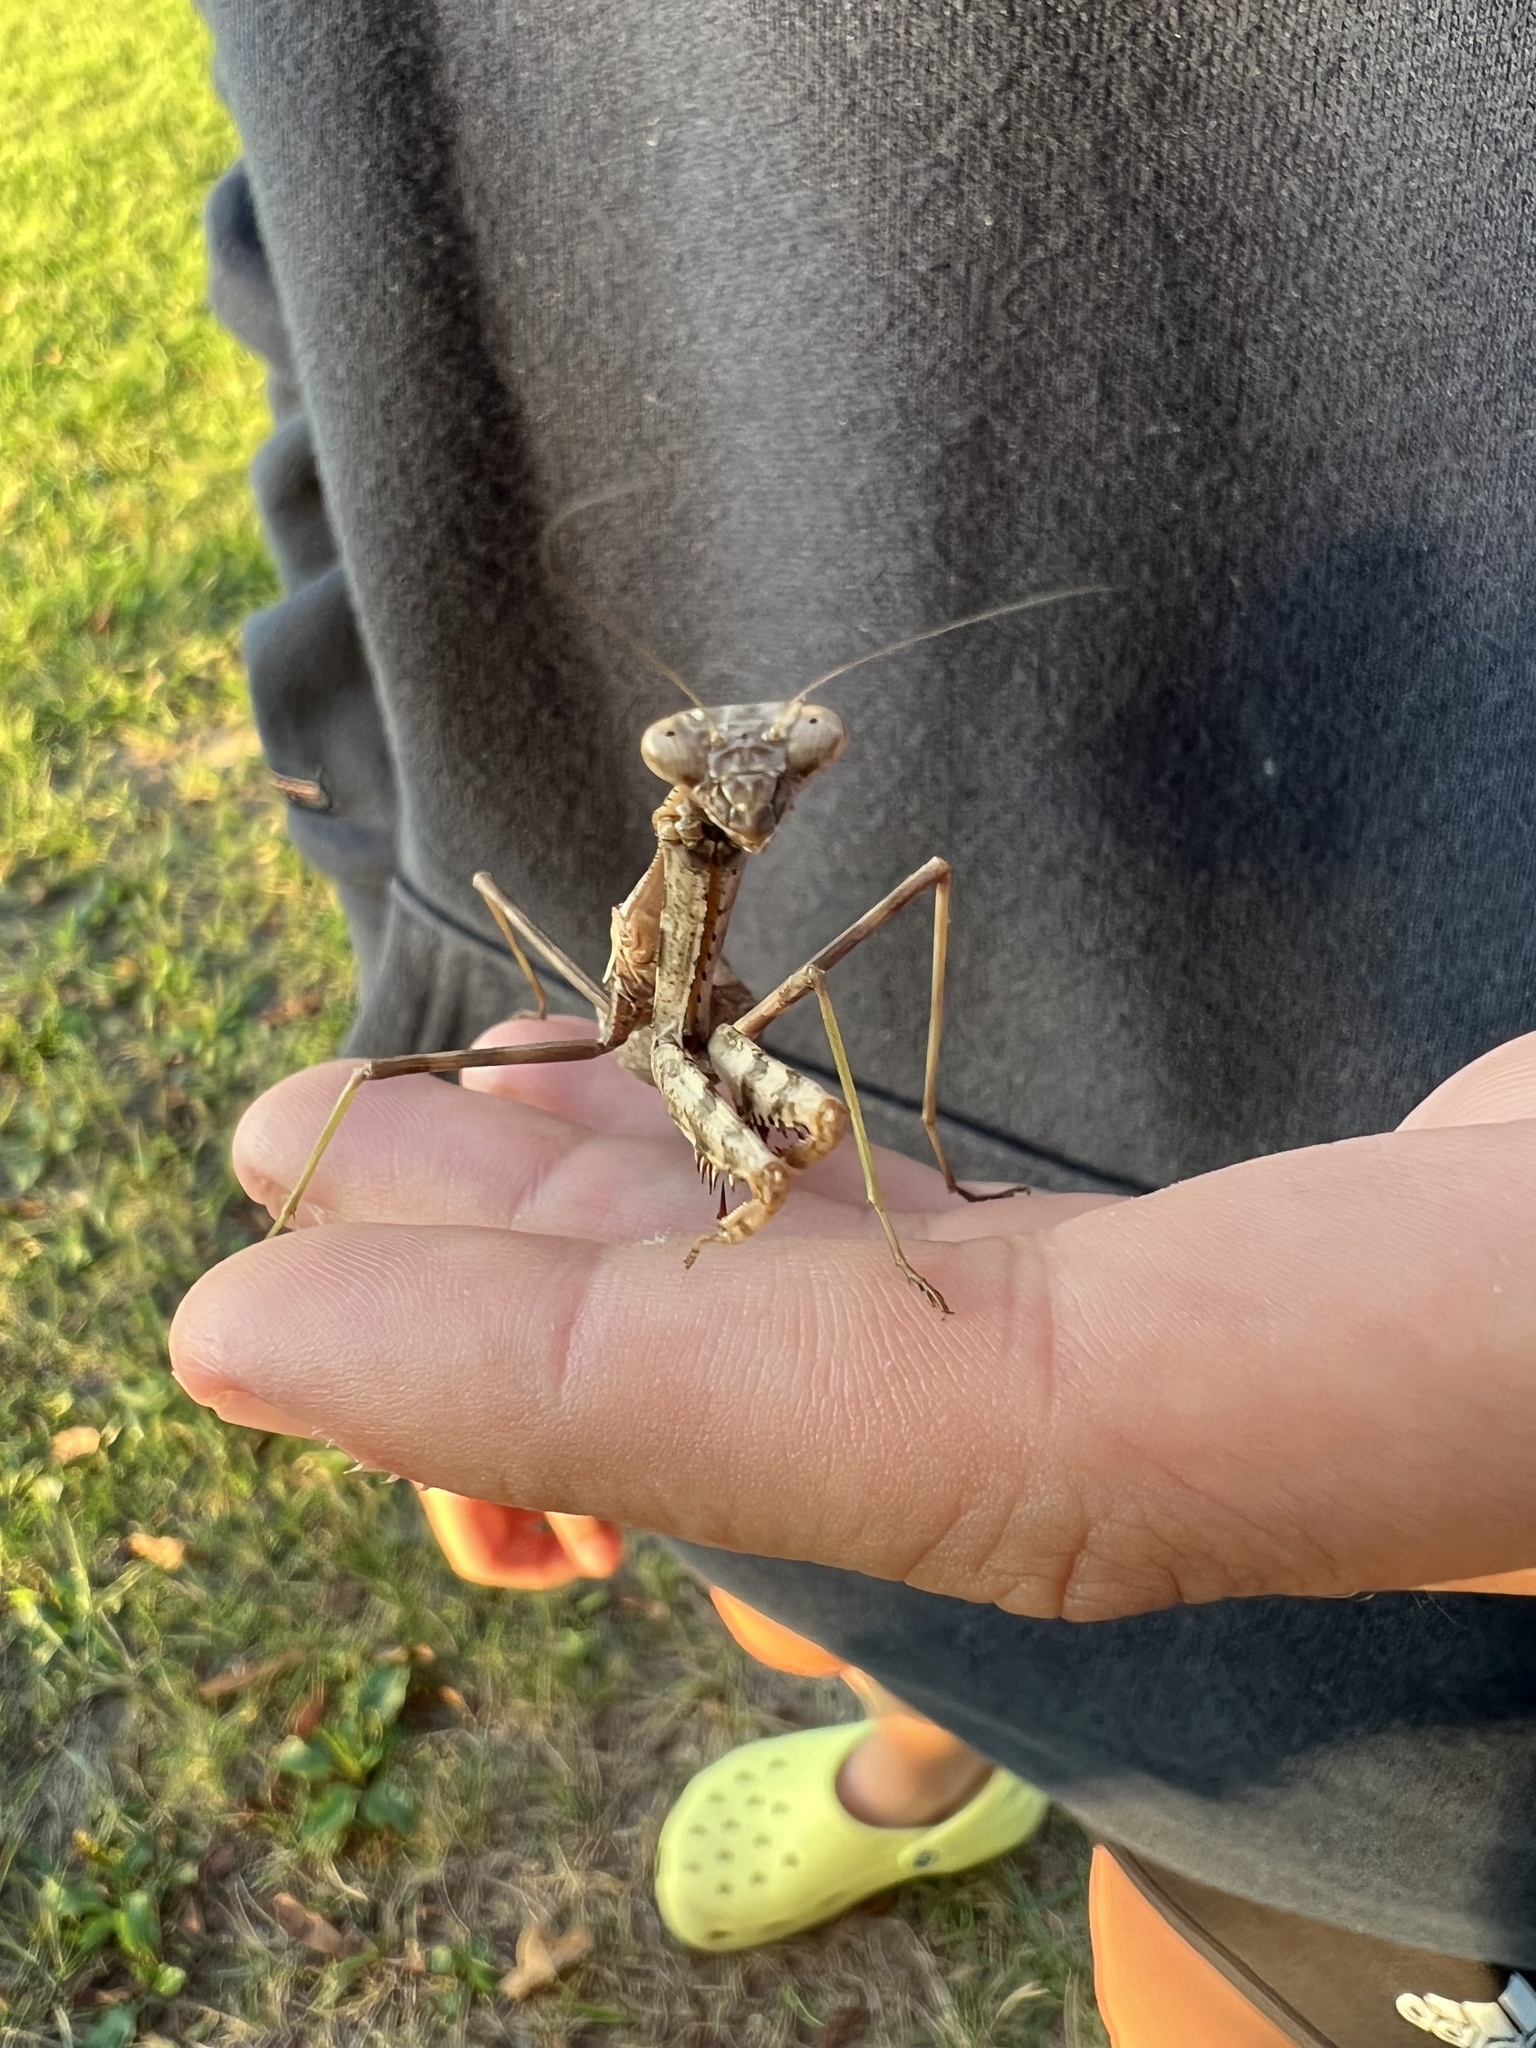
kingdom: Animalia
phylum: Arthropoda
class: Insecta
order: Mantodea
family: Mantidae
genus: Stagmomantis
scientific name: Stagmomantis carolina
